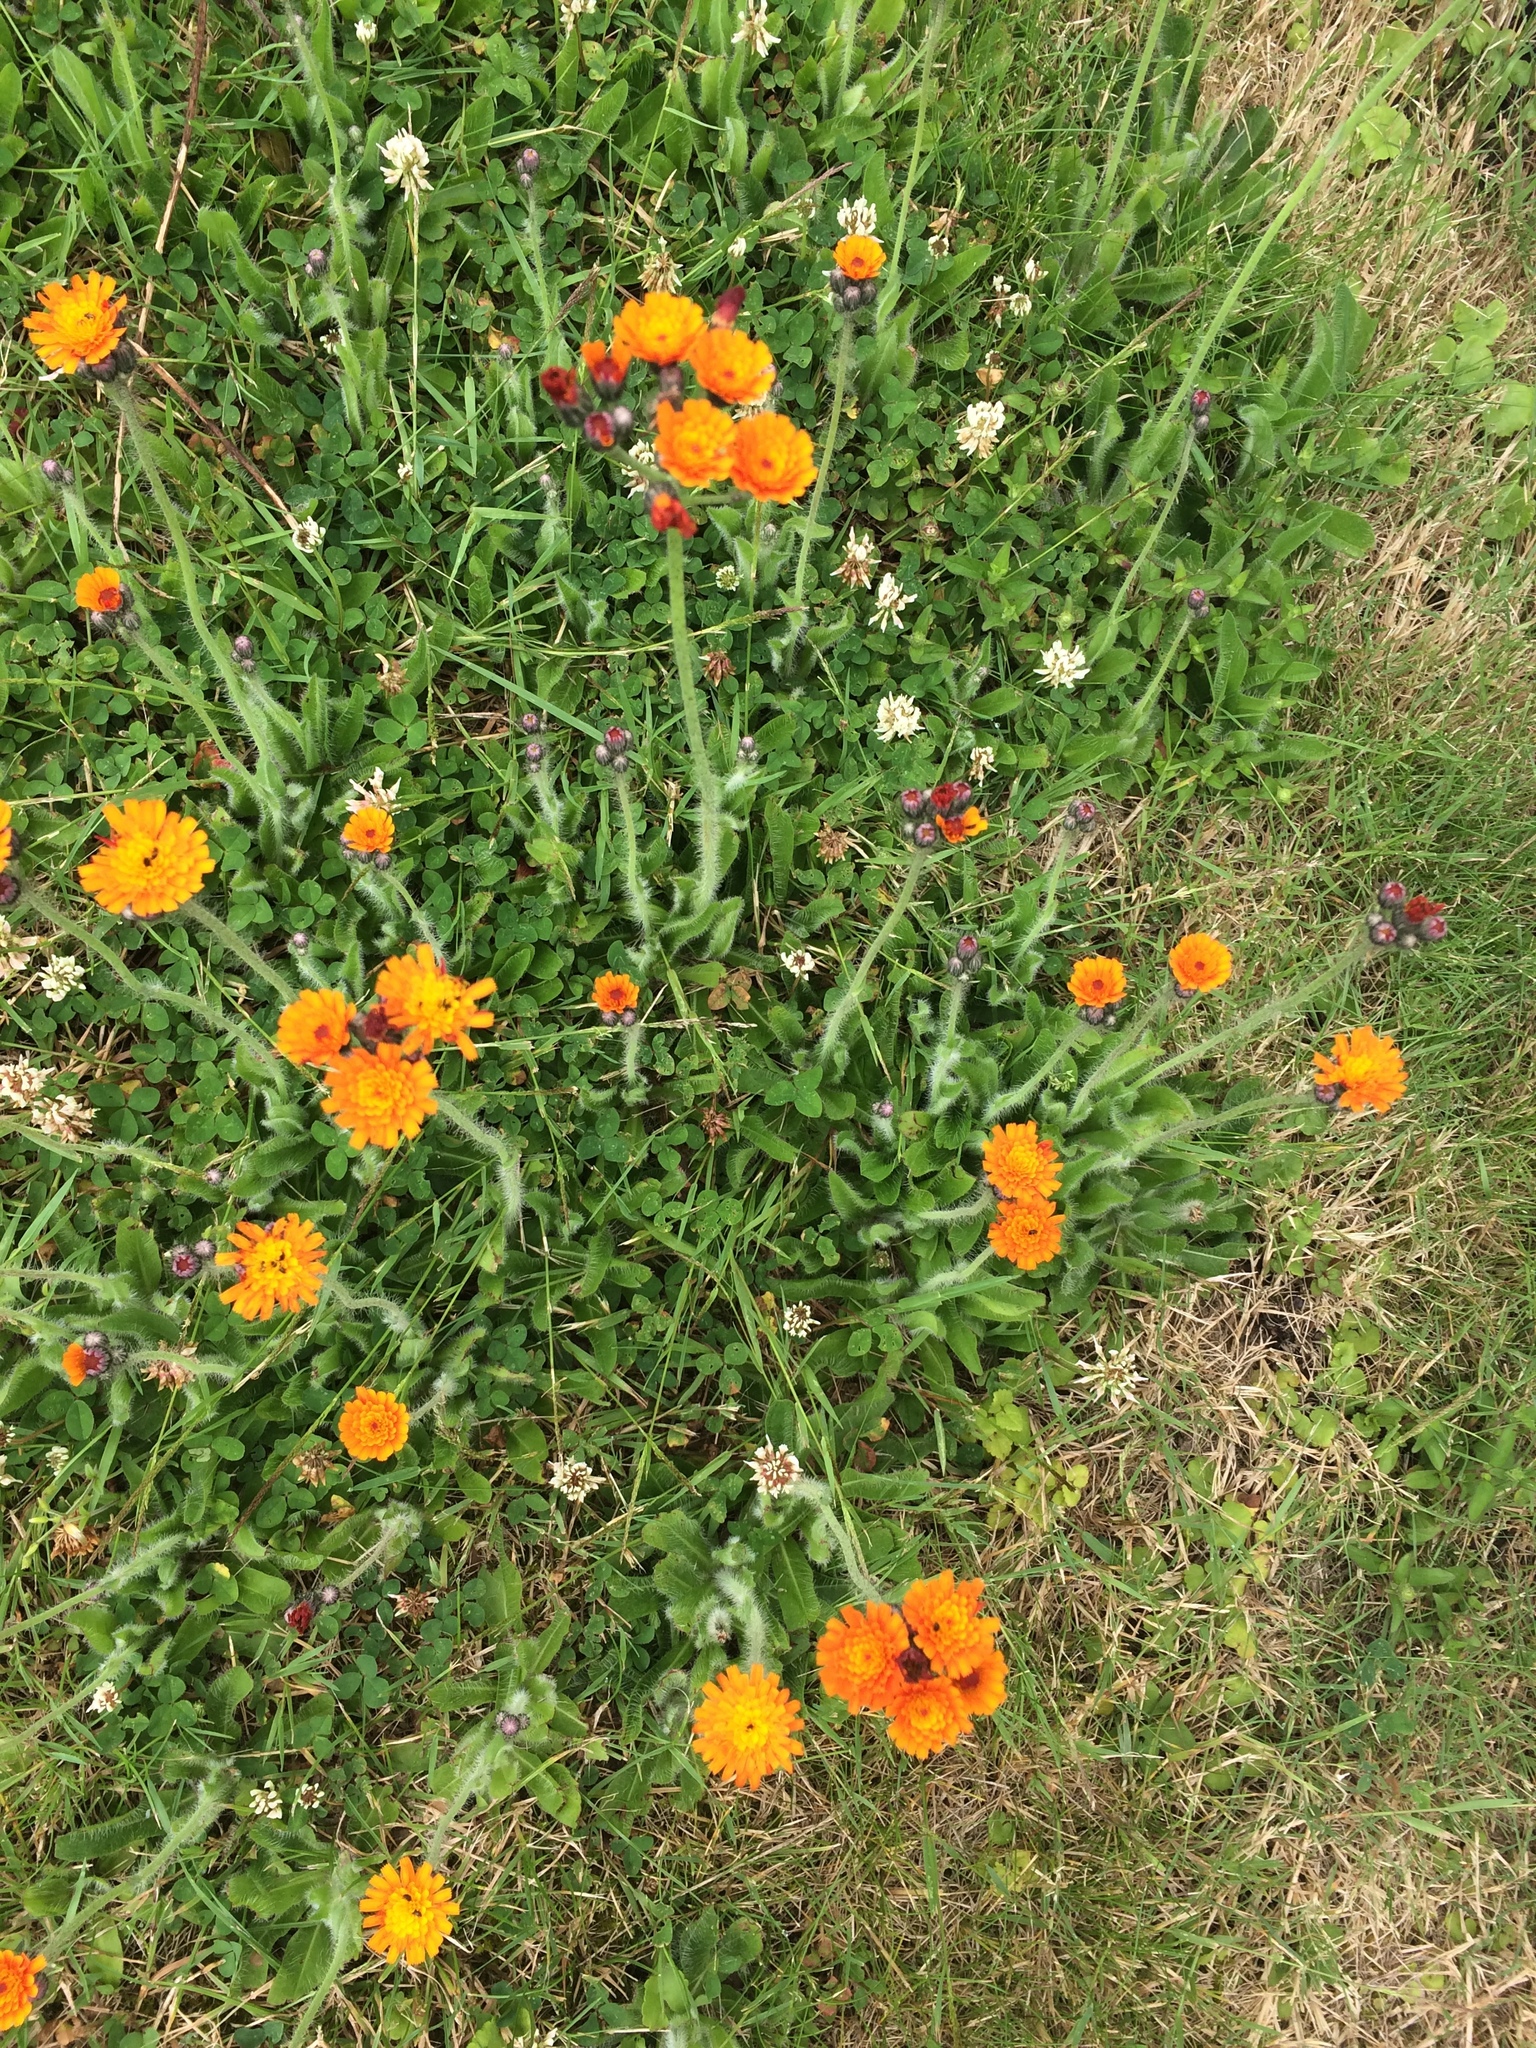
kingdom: Plantae
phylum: Tracheophyta
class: Magnoliopsida
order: Asterales
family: Asteraceae
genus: Pilosella
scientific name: Pilosella aurantiaca
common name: Fox-and-cubs
